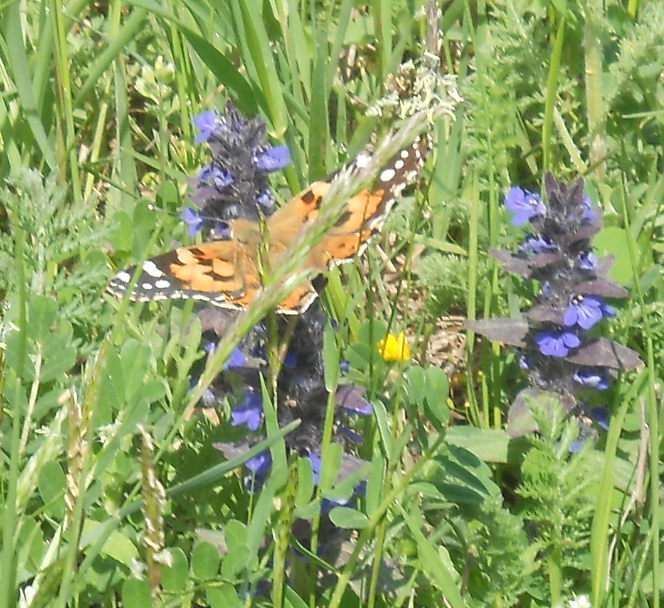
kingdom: Animalia
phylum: Arthropoda
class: Insecta
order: Lepidoptera
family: Nymphalidae
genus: Vanessa
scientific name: Vanessa cardui
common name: Painted lady
